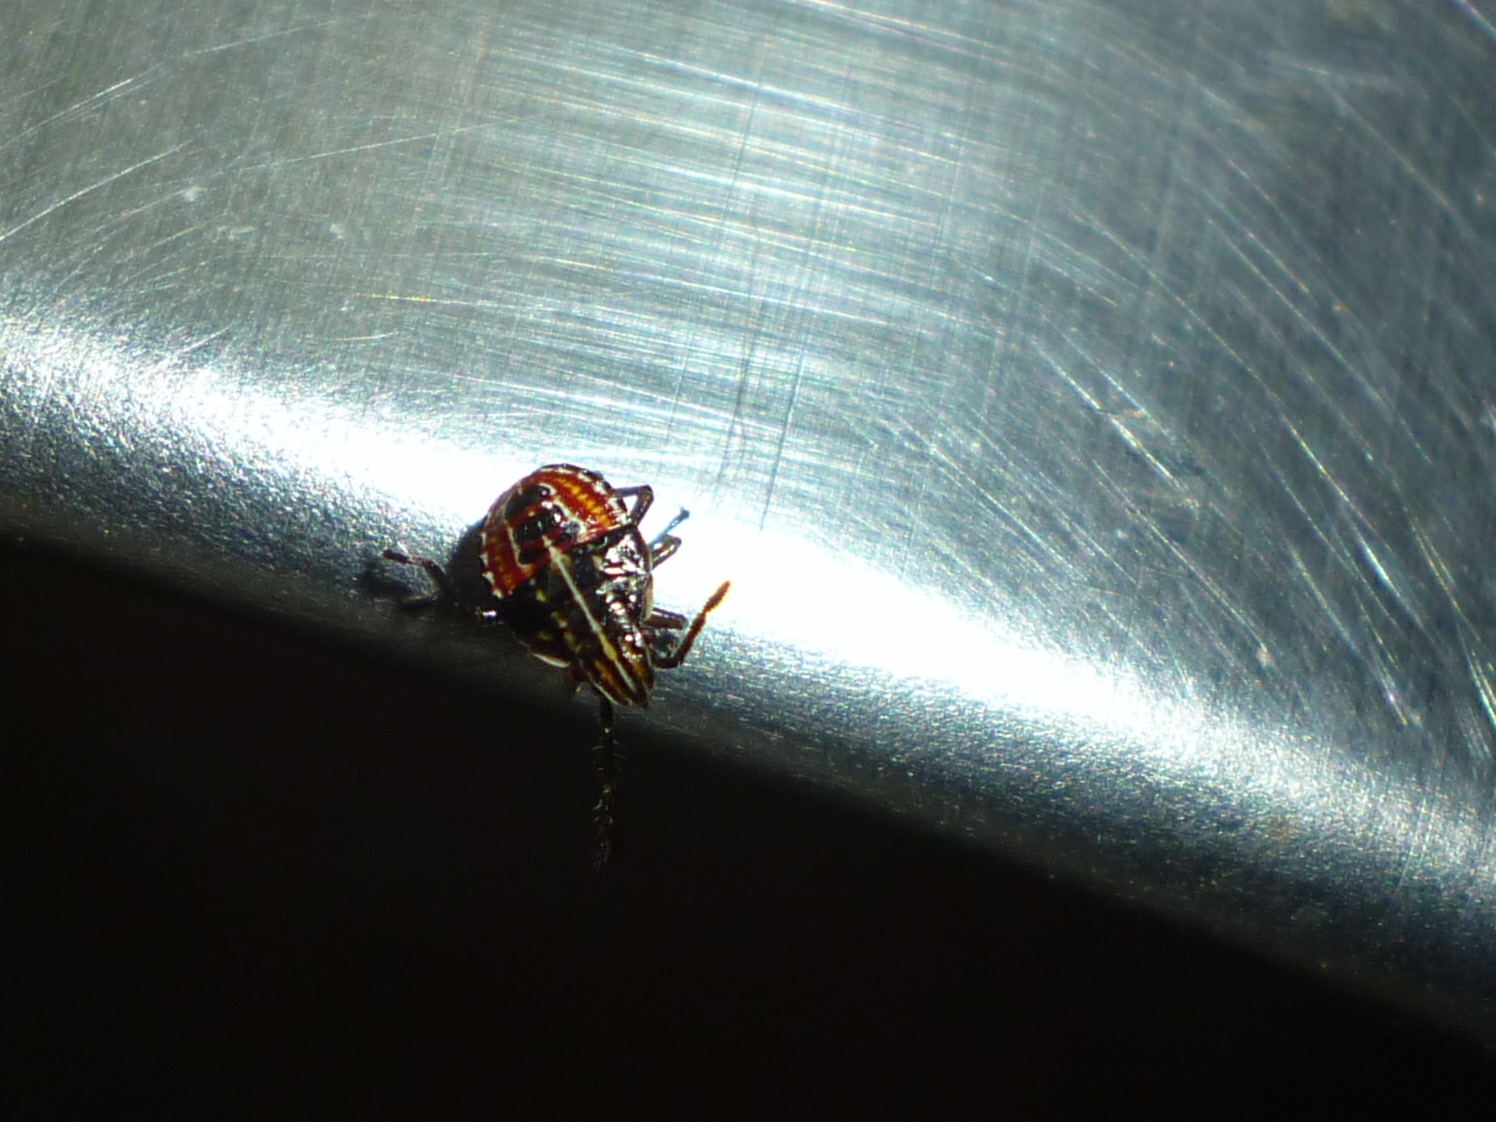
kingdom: Animalia
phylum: Arthropoda
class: Insecta
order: Hemiptera
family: Acanthosomatidae
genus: Elasmucha
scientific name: Elasmucha lateralis
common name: Shield bug
